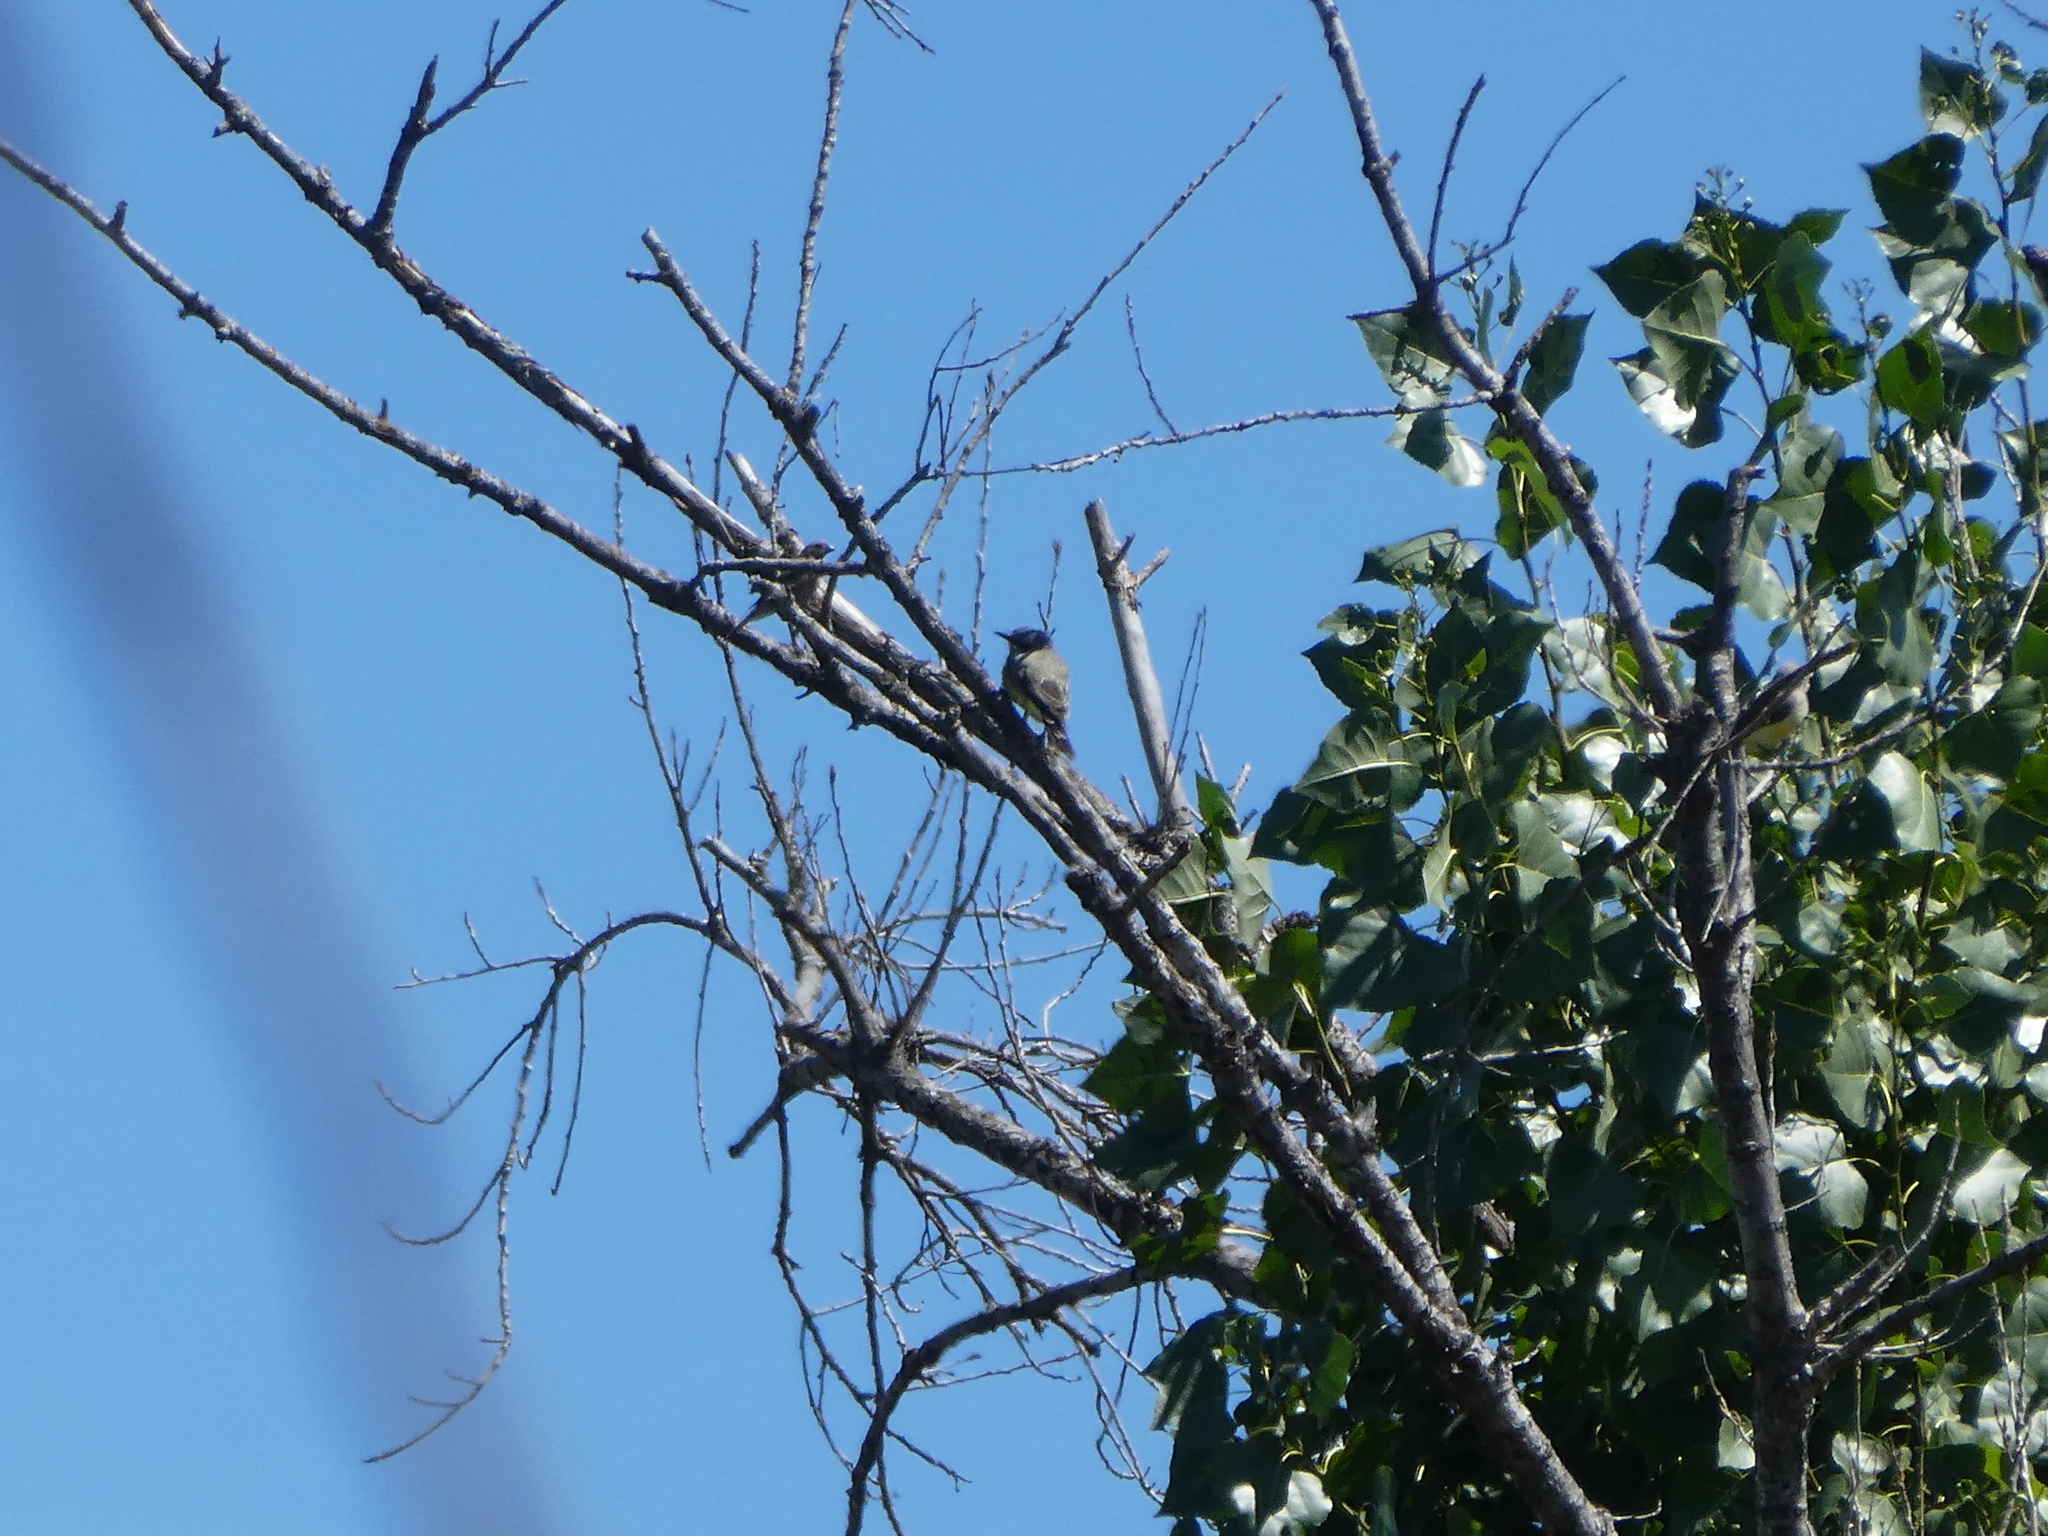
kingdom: Animalia
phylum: Chordata
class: Aves
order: Passeriformes
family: Tyrannidae
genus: Tyrannus
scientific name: Tyrannus vociferans
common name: Cassin's kingbird
